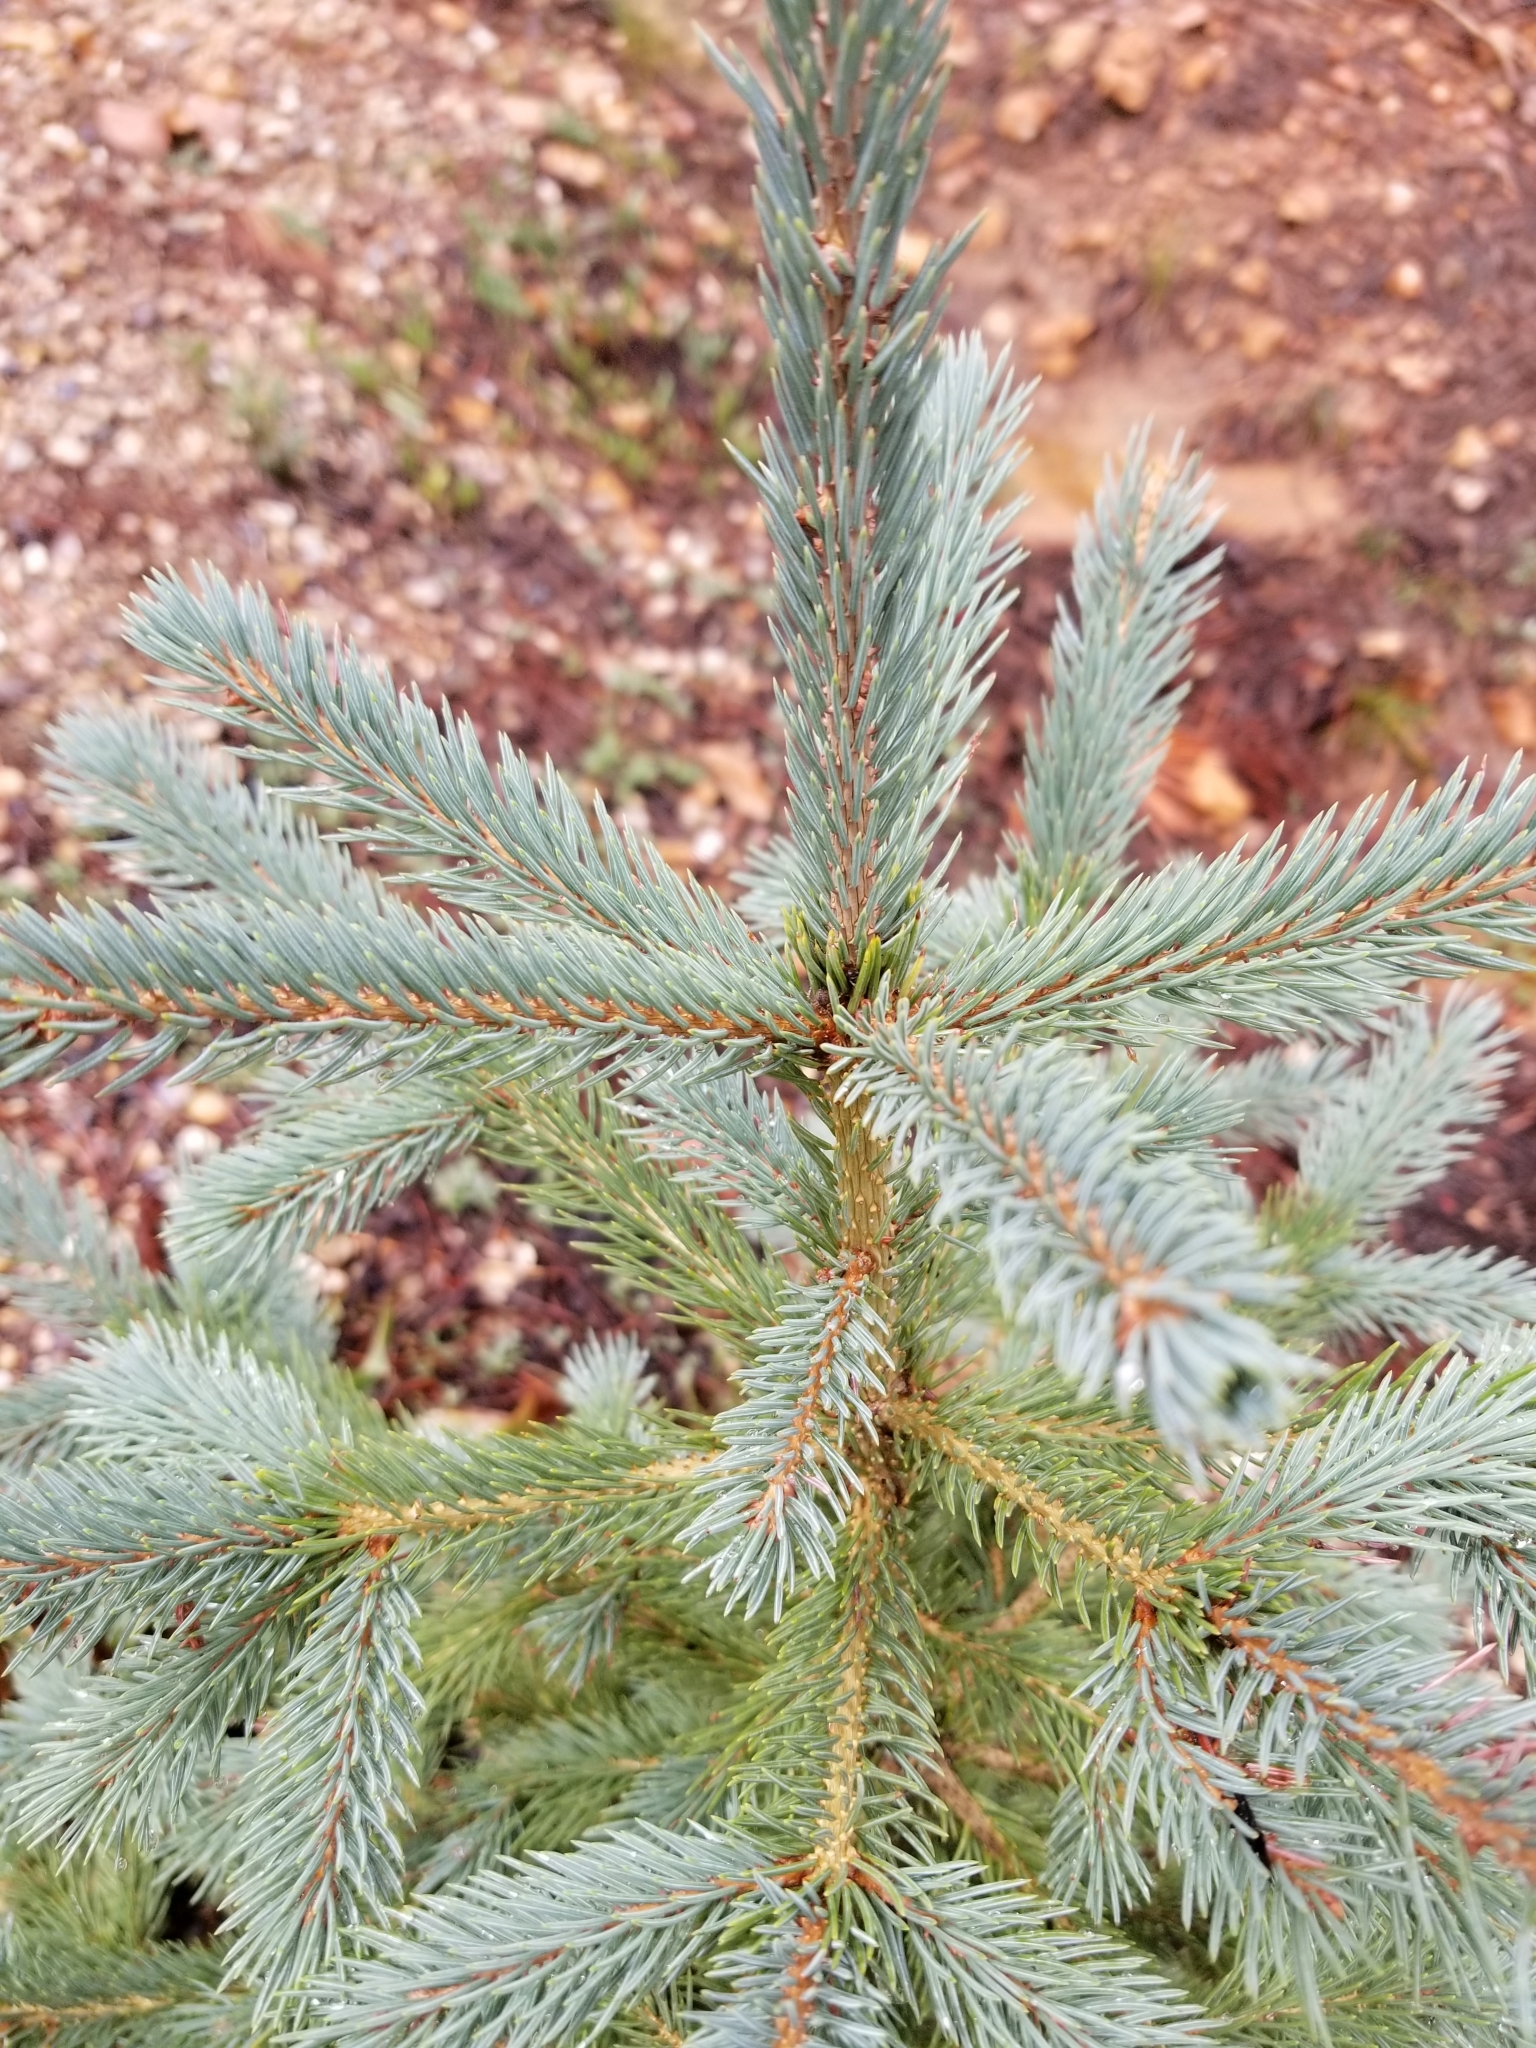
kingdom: Plantae
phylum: Tracheophyta
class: Pinopsida
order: Pinales
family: Pinaceae
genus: Picea
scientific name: Picea pungens
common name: Colorado spruce
